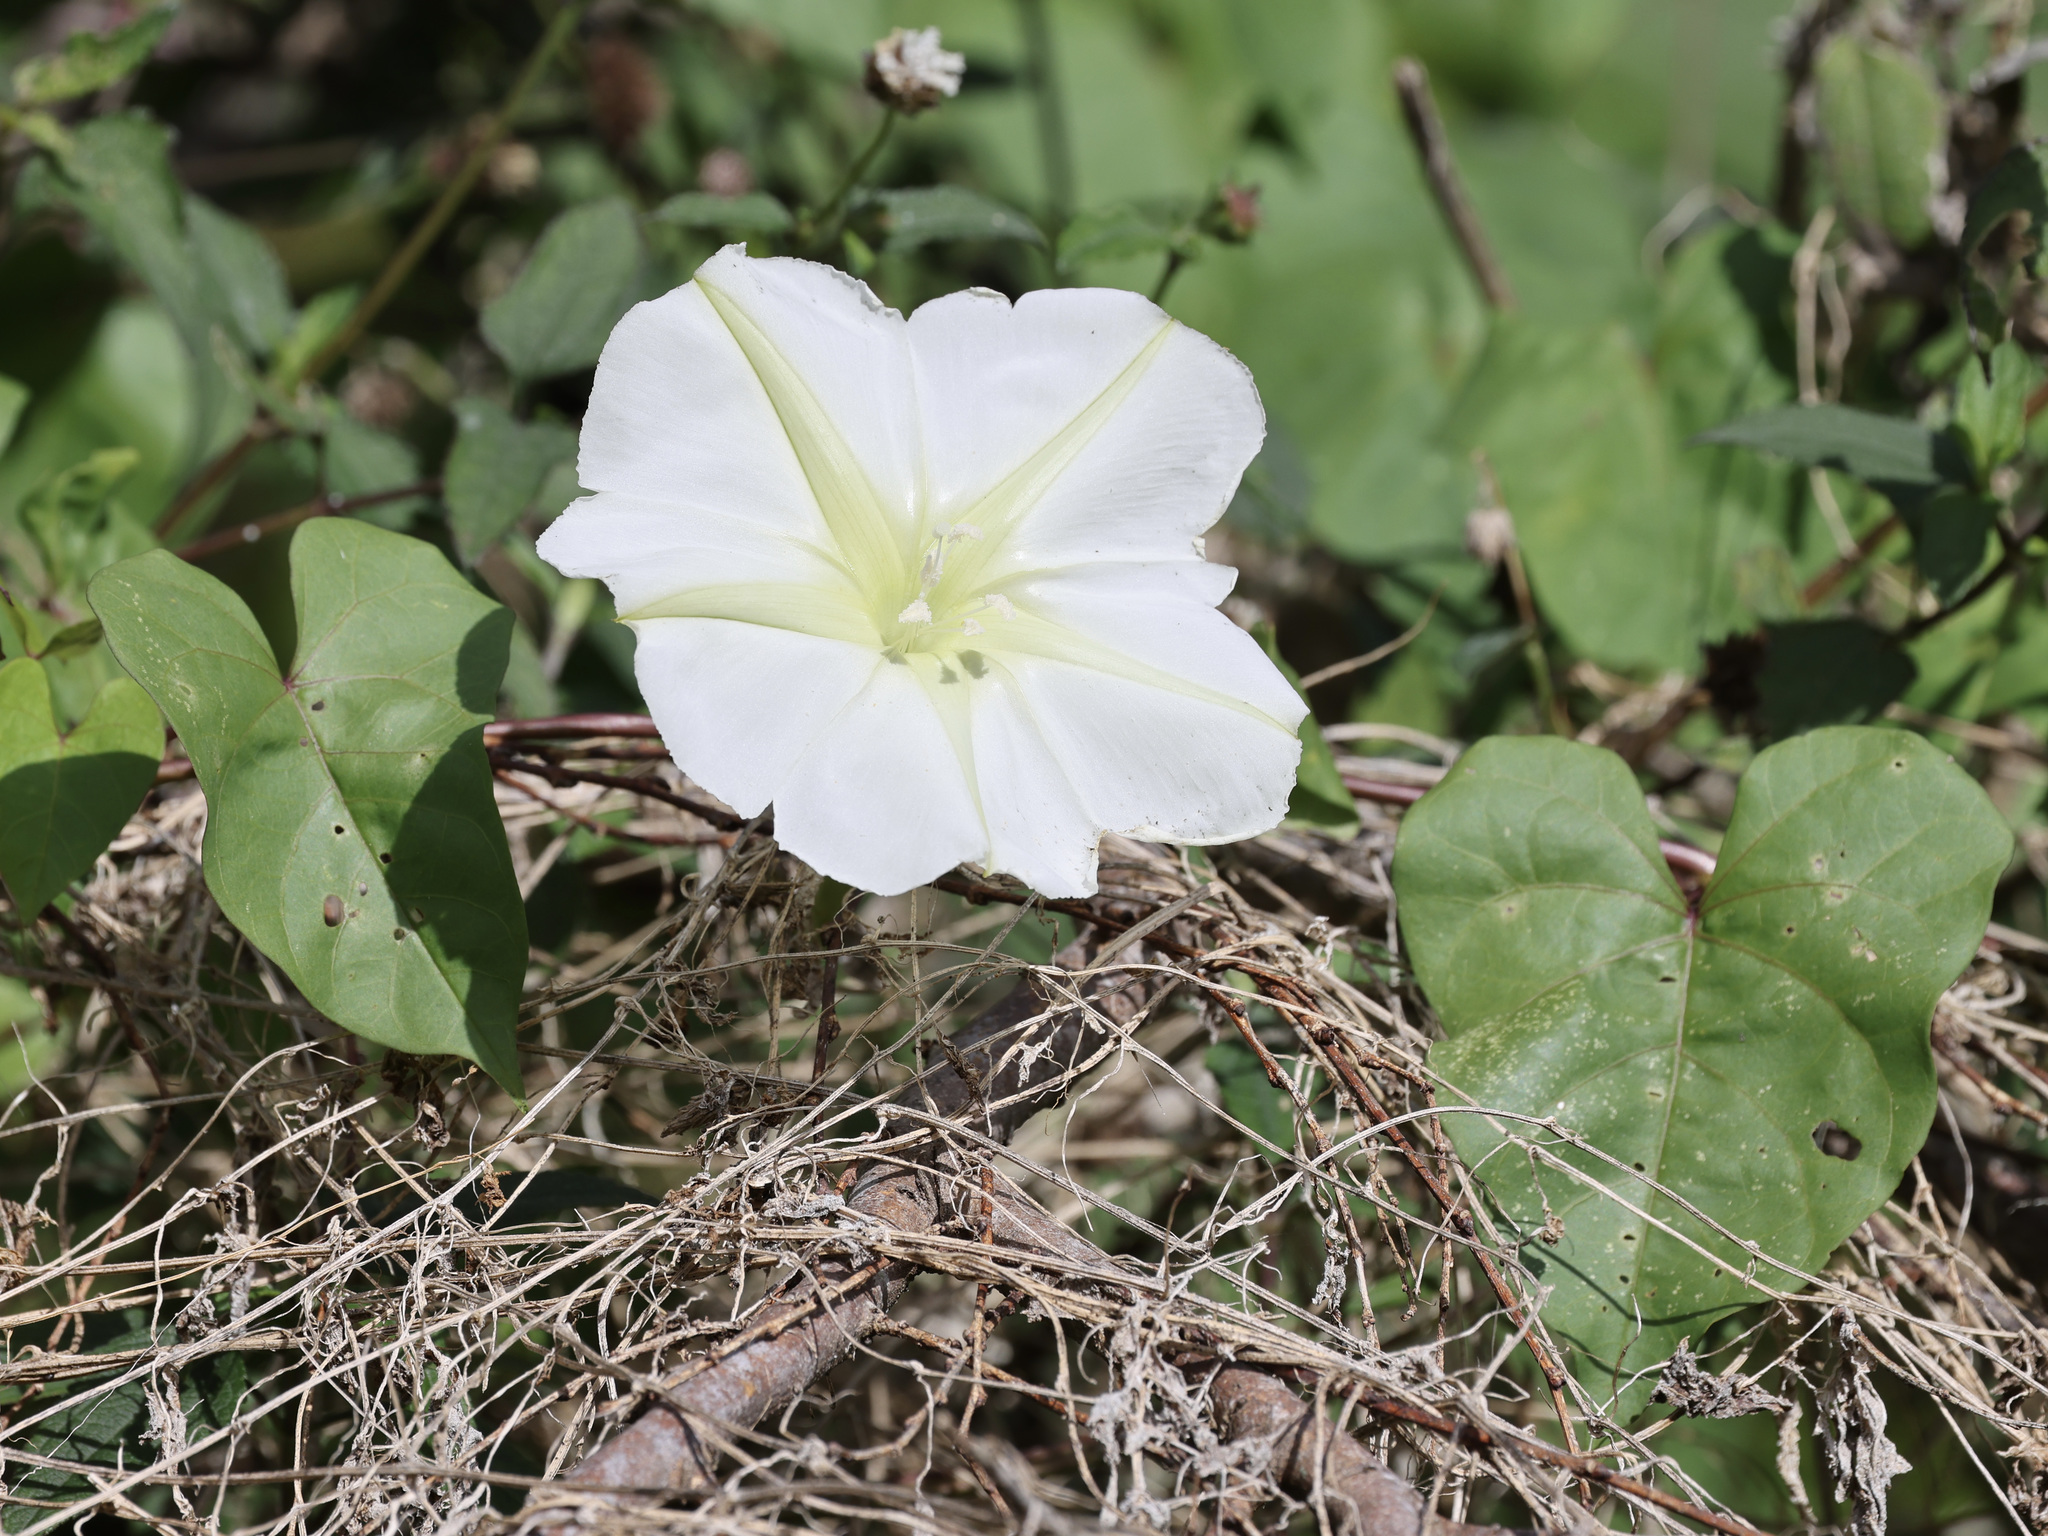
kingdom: Plantae
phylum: Tracheophyta
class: Magnoliopsida
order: Solanales
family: Convolvulaceae
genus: Ipomoea
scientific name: Ipomoea alba
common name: Moonflower
